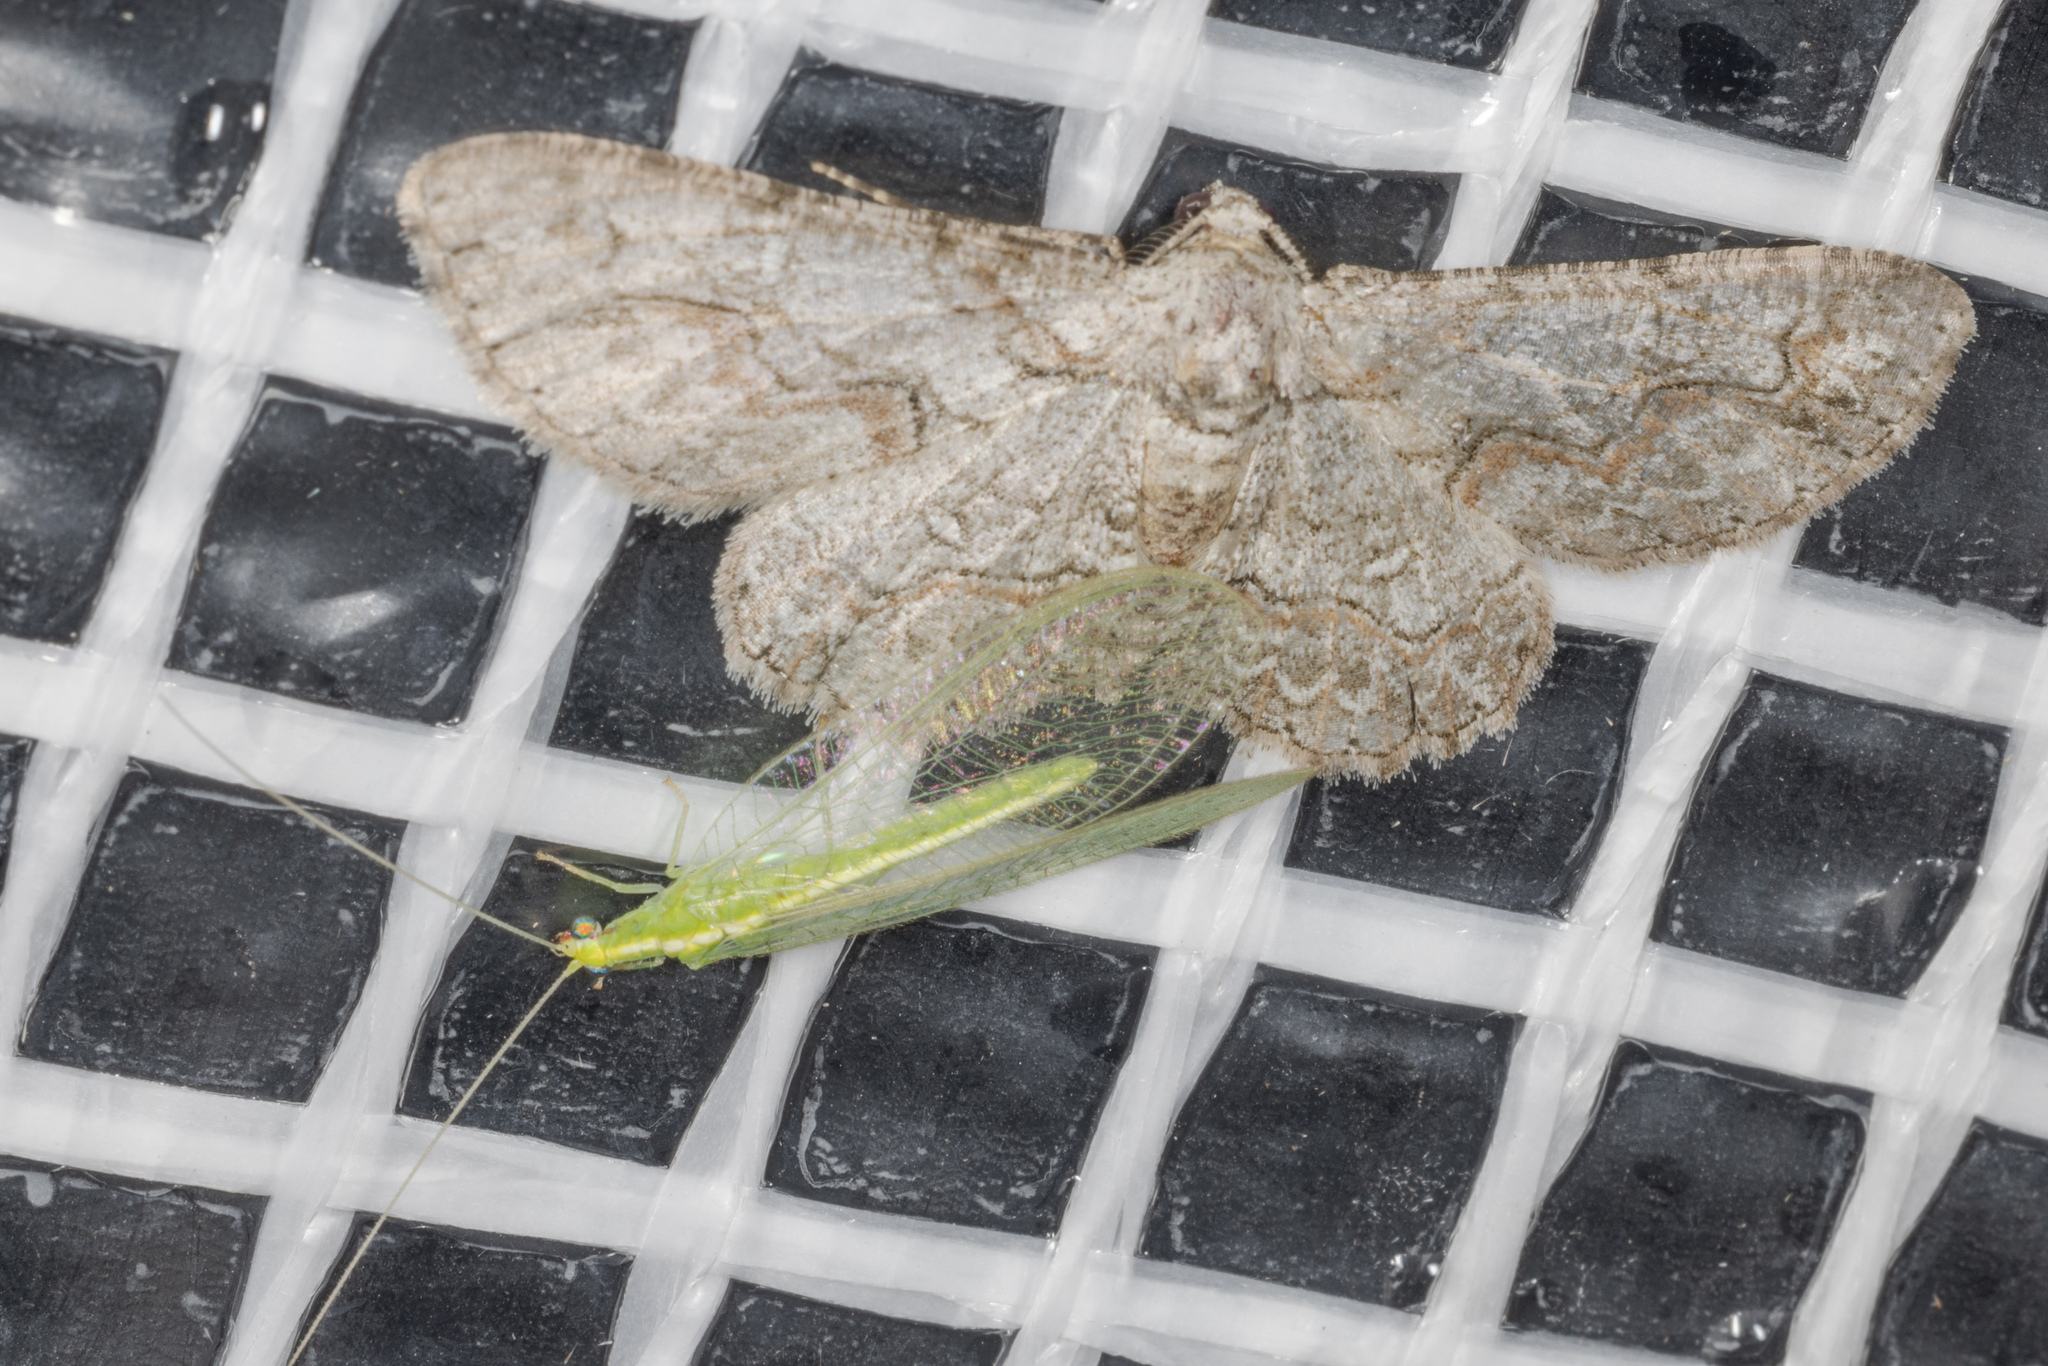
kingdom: Animalia
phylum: Arthropoda
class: Insecta
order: Lepidoptera
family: Geometridae
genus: Iridopsis
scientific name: Iridopsis defectaria
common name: Brown-shaded gray
